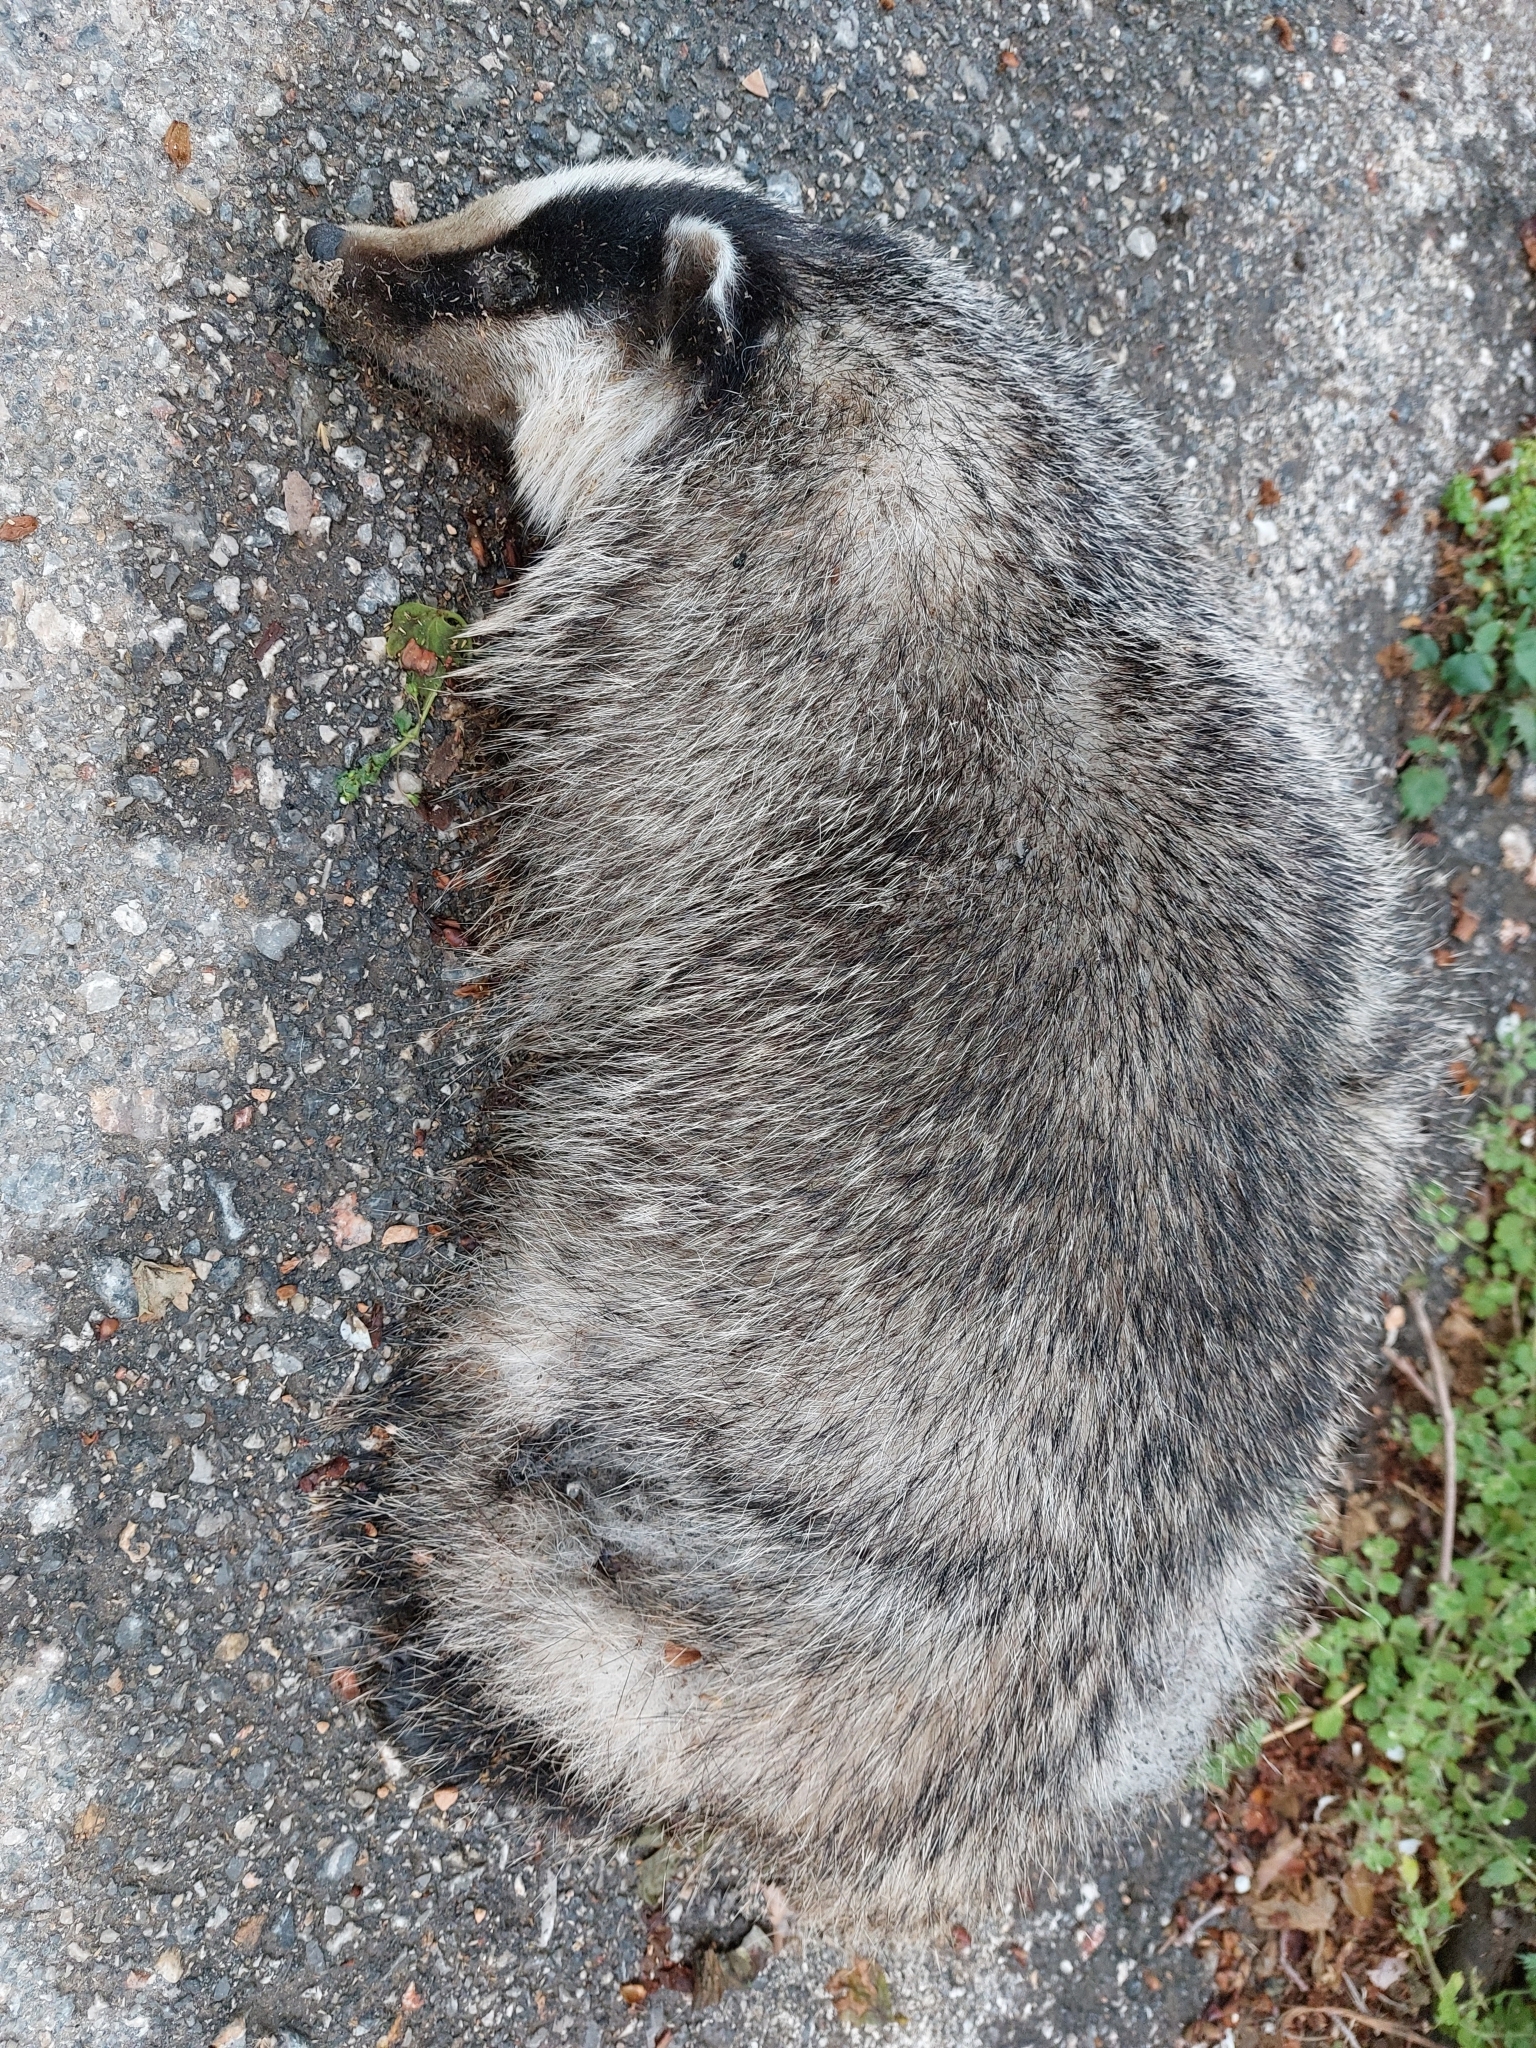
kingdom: Animalia
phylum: Chordata
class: Mammalia
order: Carnivora
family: Mustelidae
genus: Meles
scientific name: Meles canescens
